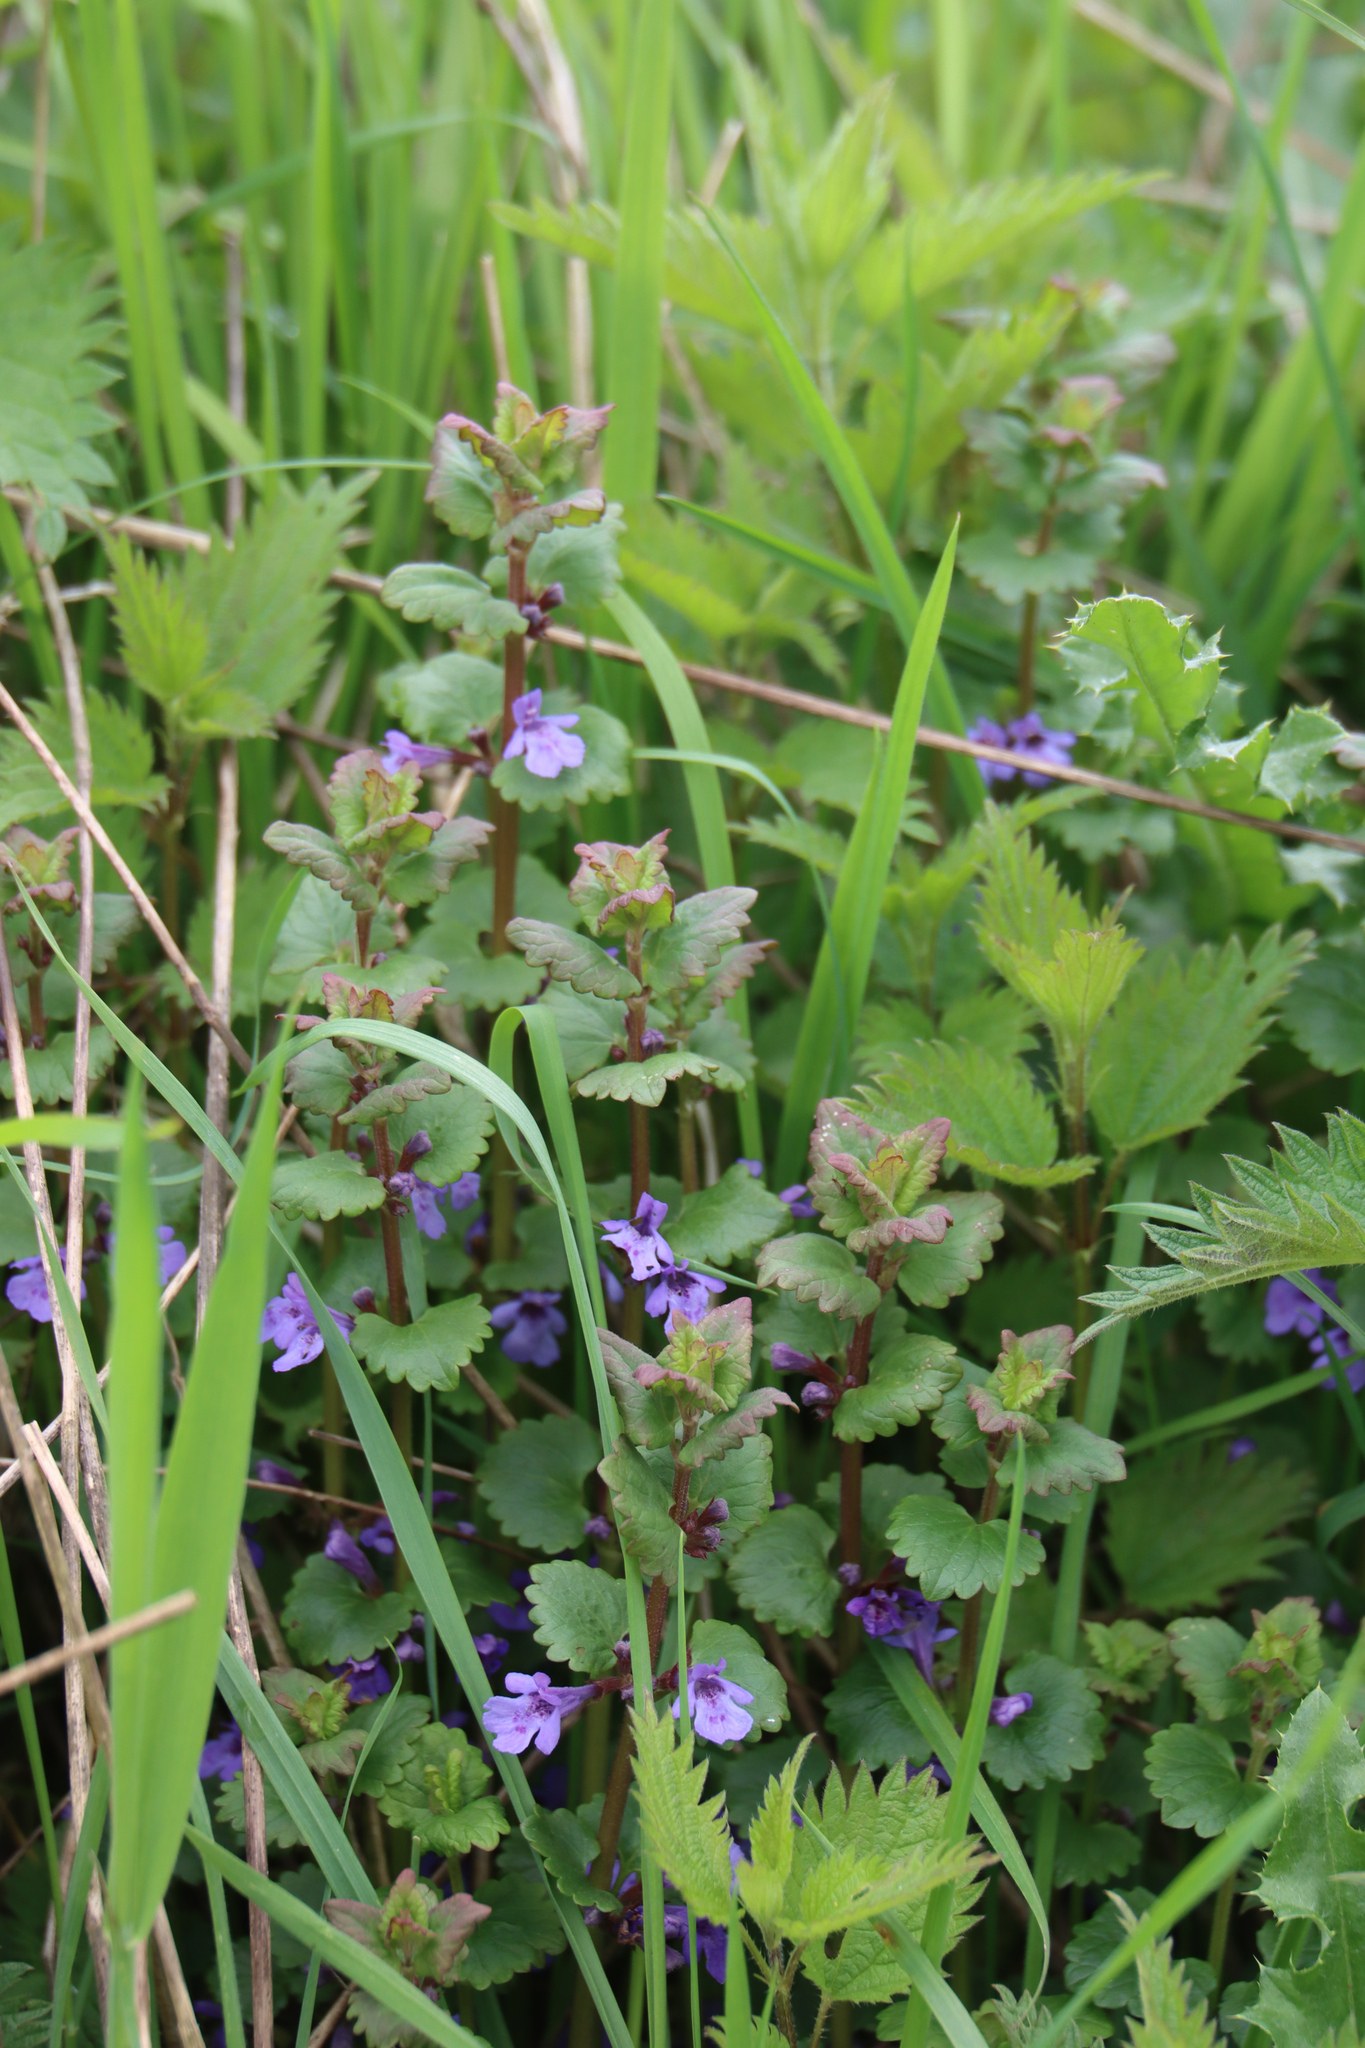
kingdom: Plantae
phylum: Tracheophyta
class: Magnoliopsida
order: Lamiales
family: Lamiaceae
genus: Glechoma
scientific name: Glechoma hederacea
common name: Ground ivy
